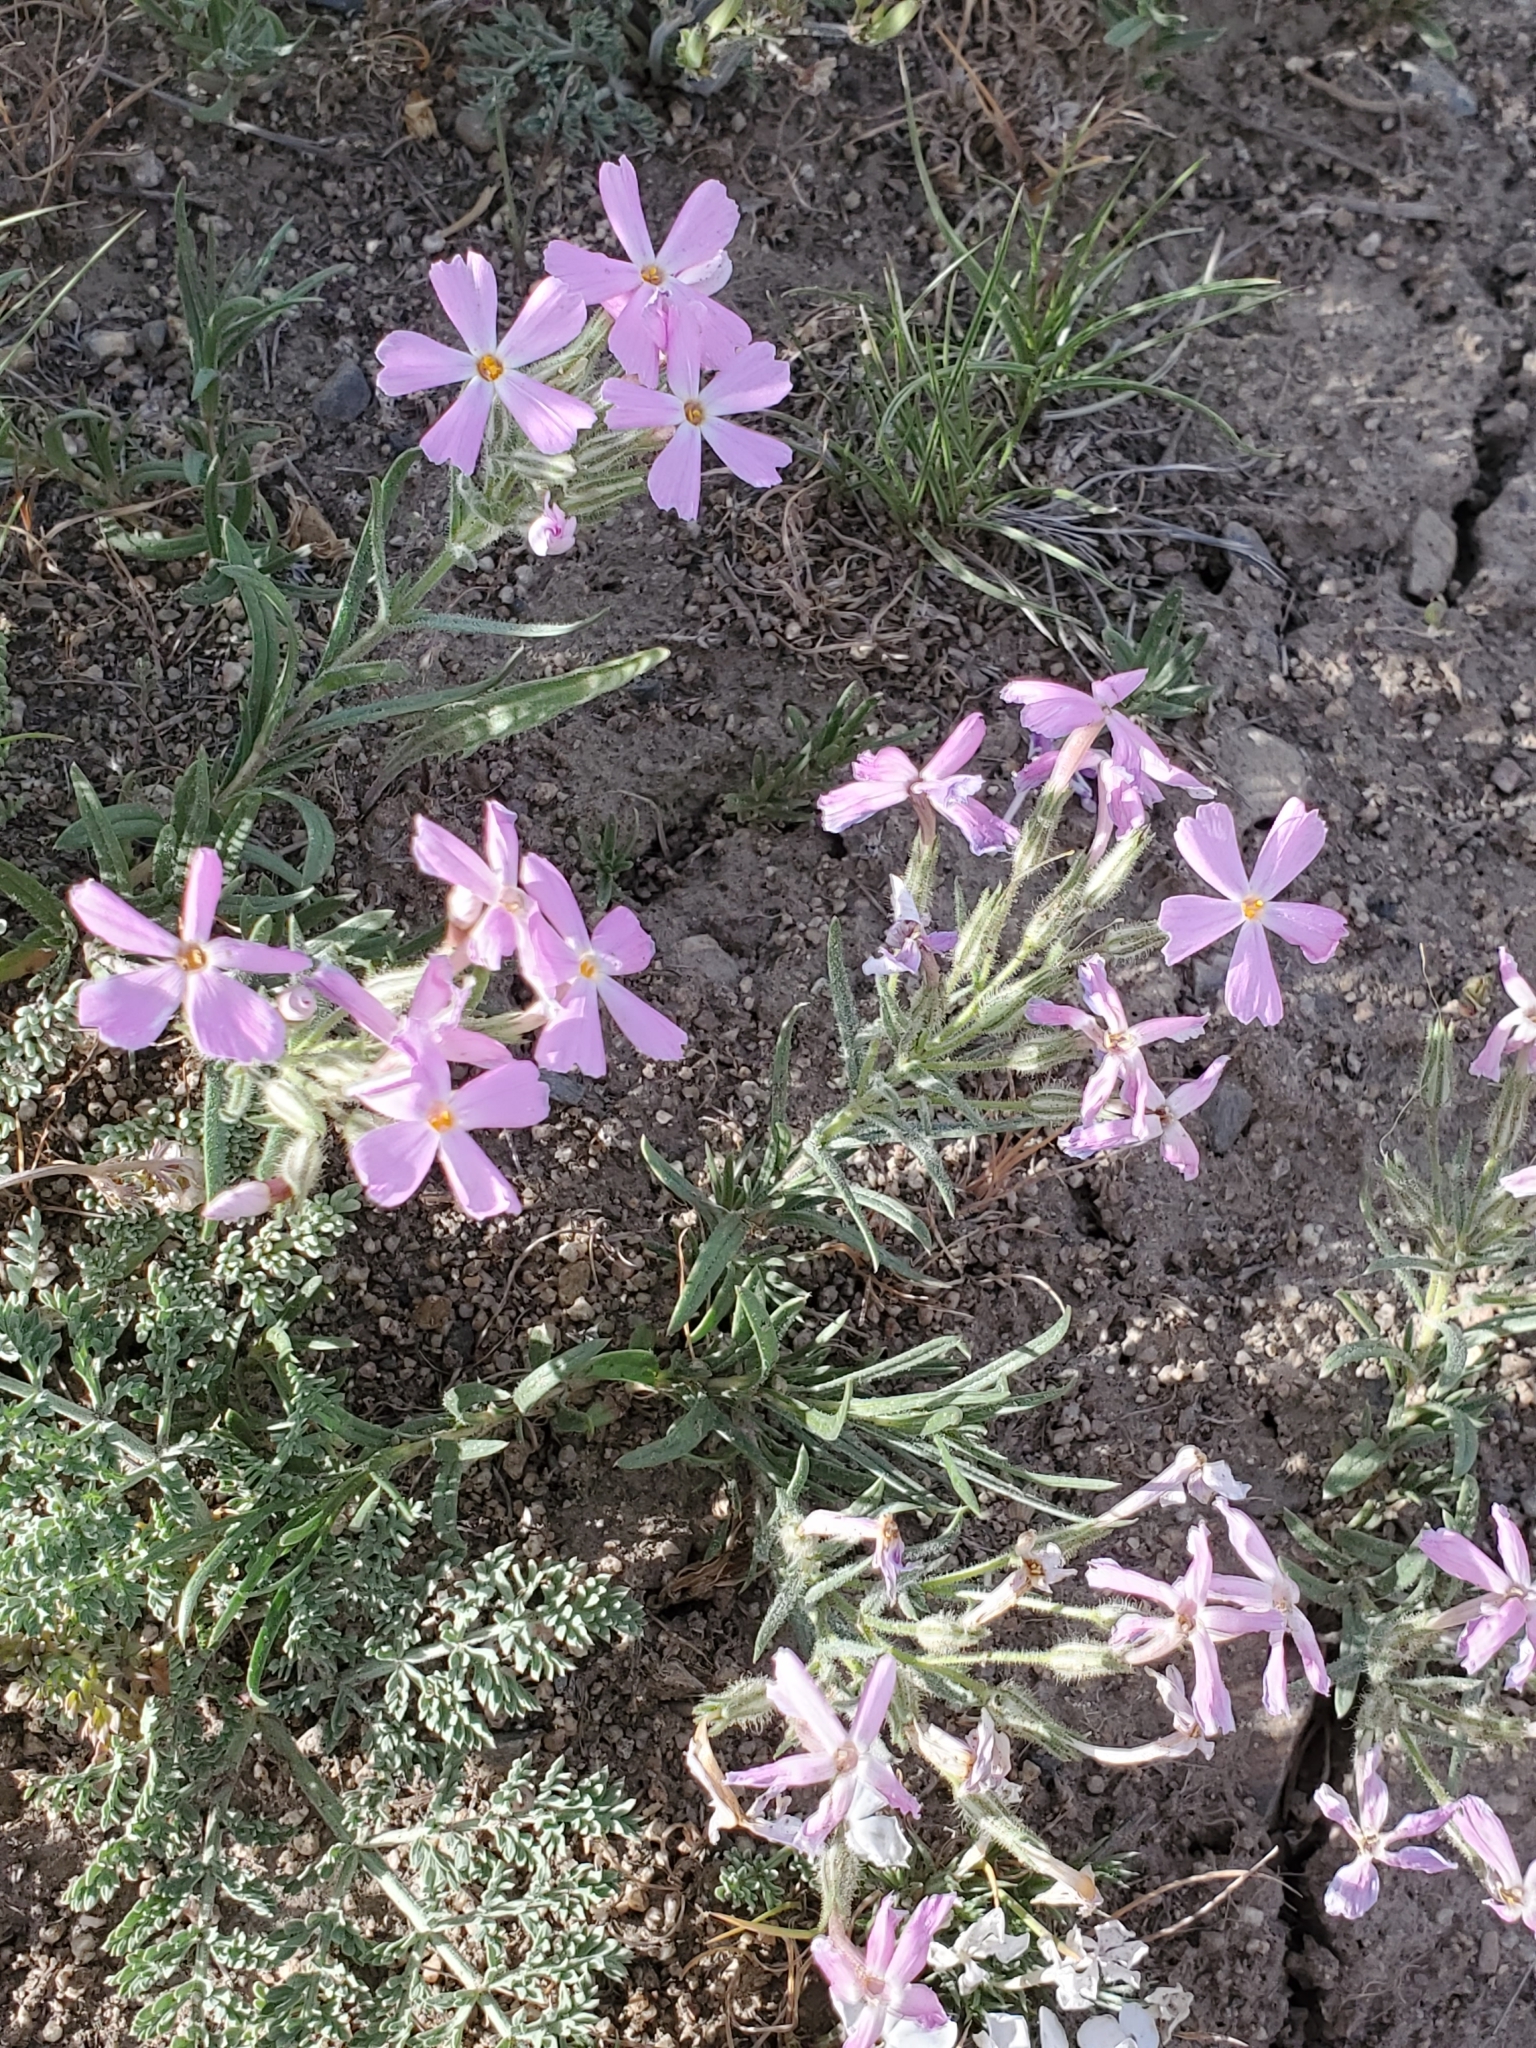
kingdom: Plantae
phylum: Tracheophyta
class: Magnoliopsida
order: Ericales
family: Polemoniaceae
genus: Phlox
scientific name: Phlox longifolia
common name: Longleaf phlox
